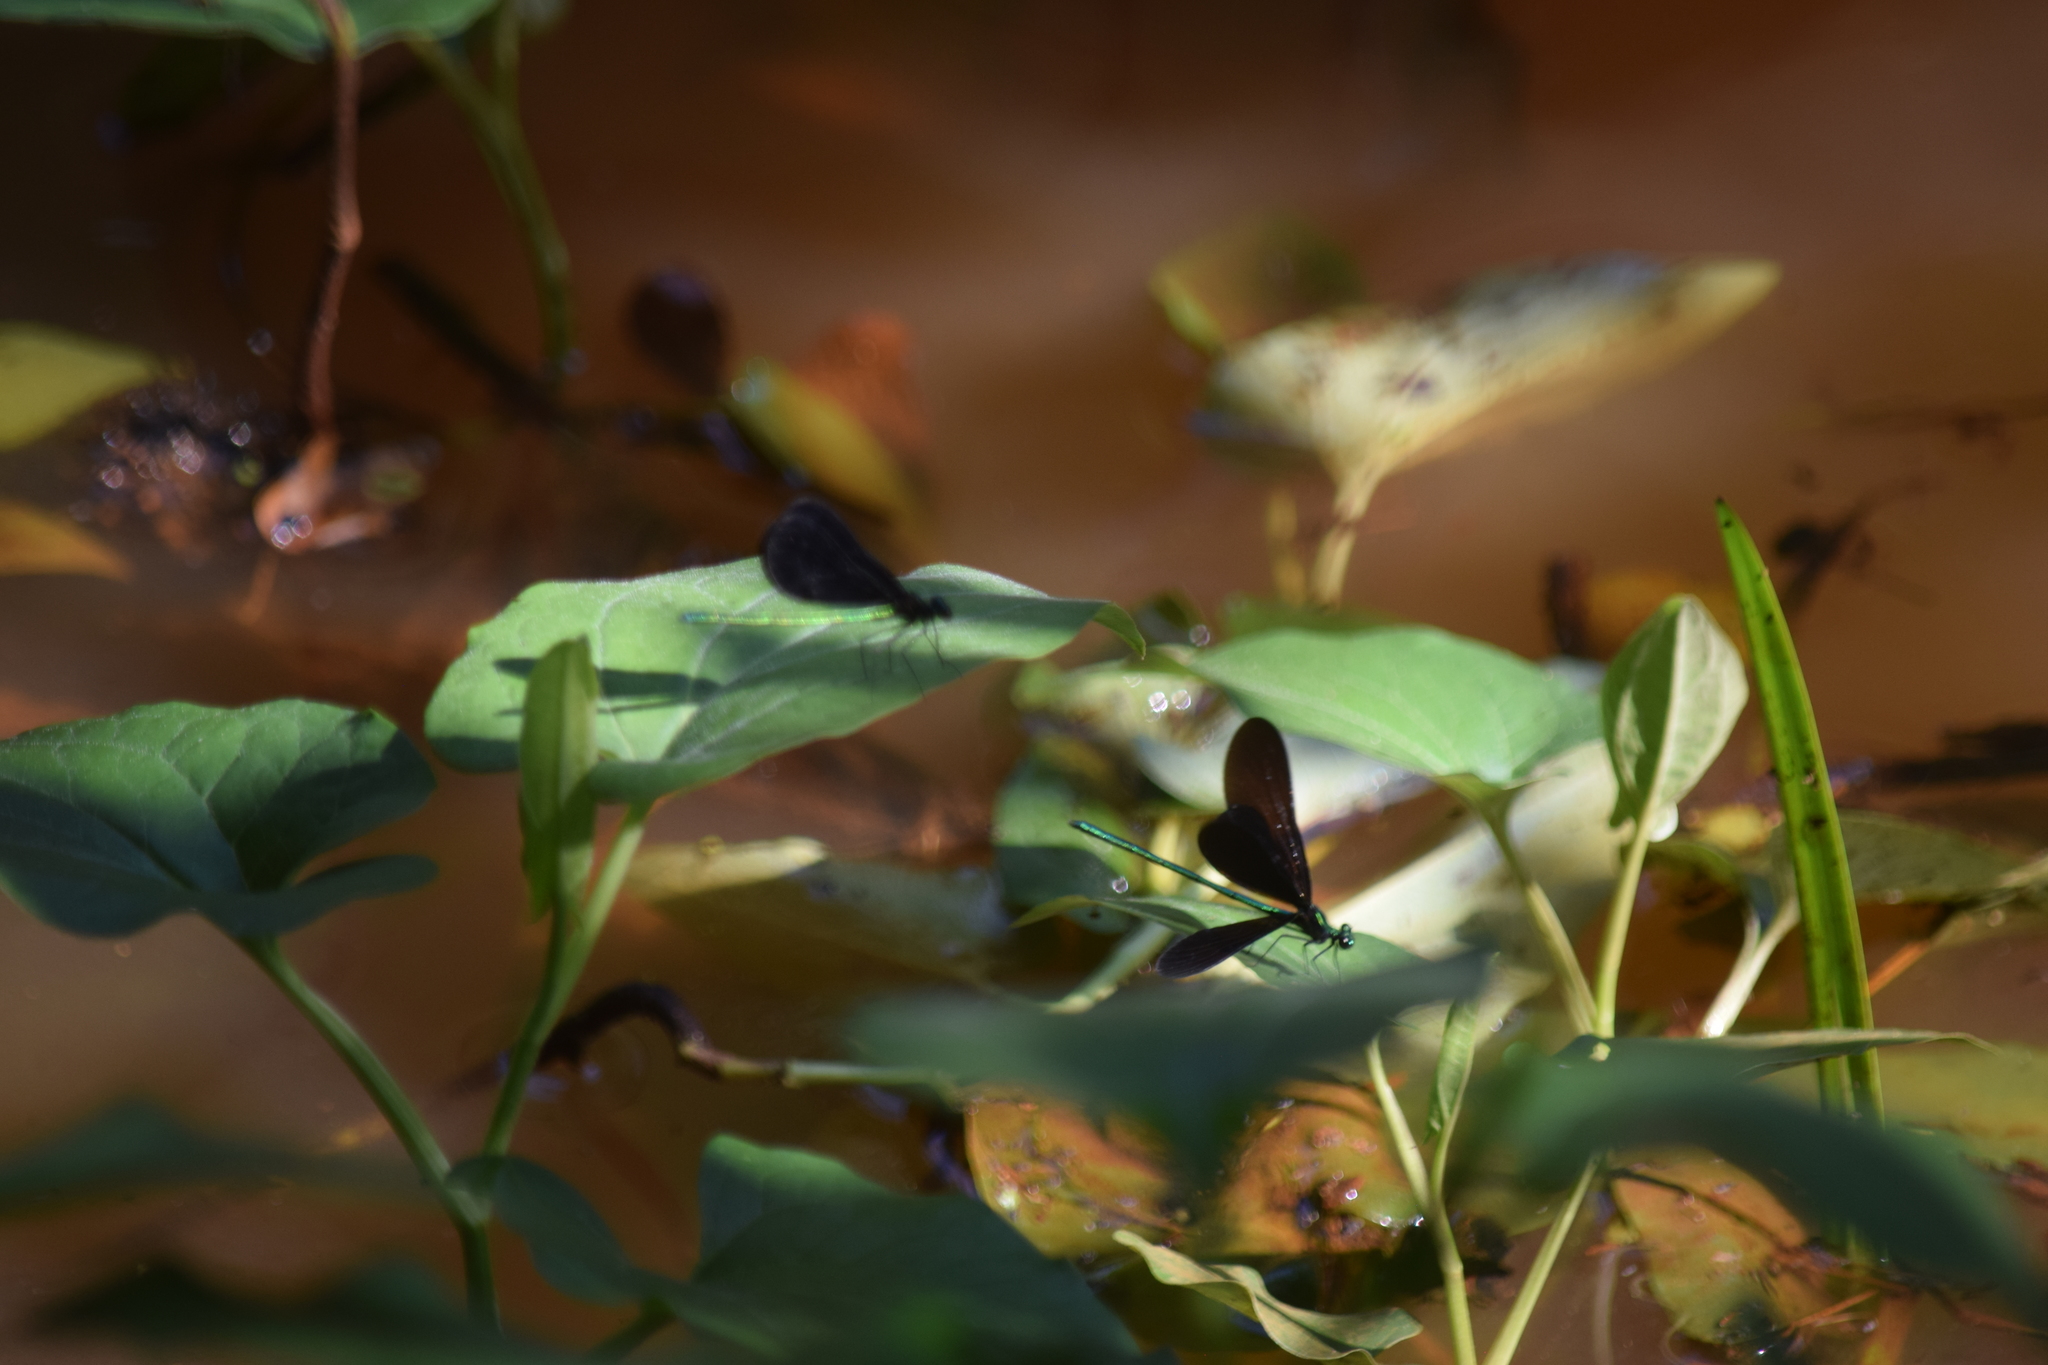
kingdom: Animalia
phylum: Arthropoda
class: Insecta
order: Odonata
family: Calopterygidae
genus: Calopteryx
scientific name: Calopteryx maculata
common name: Ebony jewelwing
